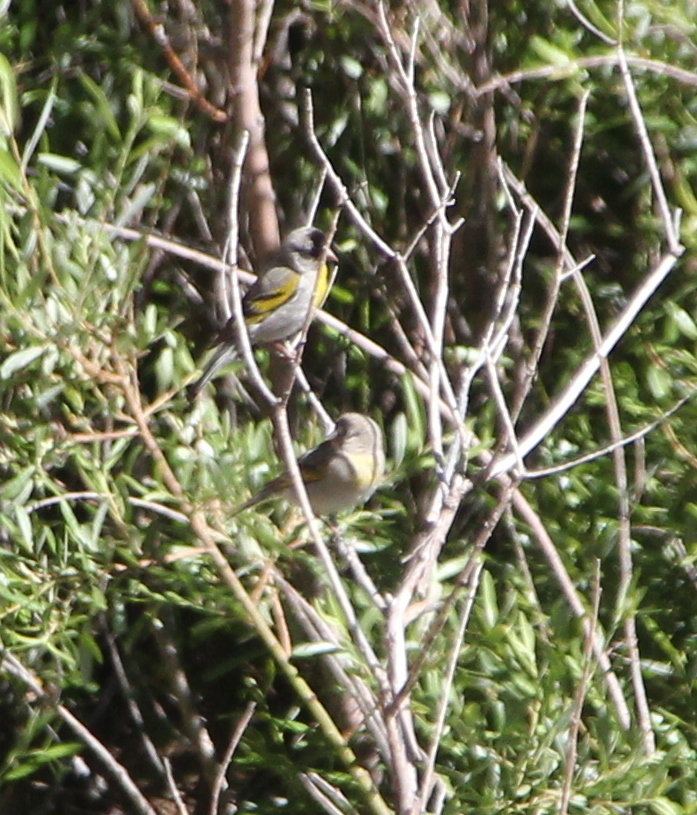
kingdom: Animalia
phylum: Chordata
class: Aves
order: Passeriformes
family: Fringillidae
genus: Spinus
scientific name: Spinus lawrencei
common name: Lawrence's goldfinch
